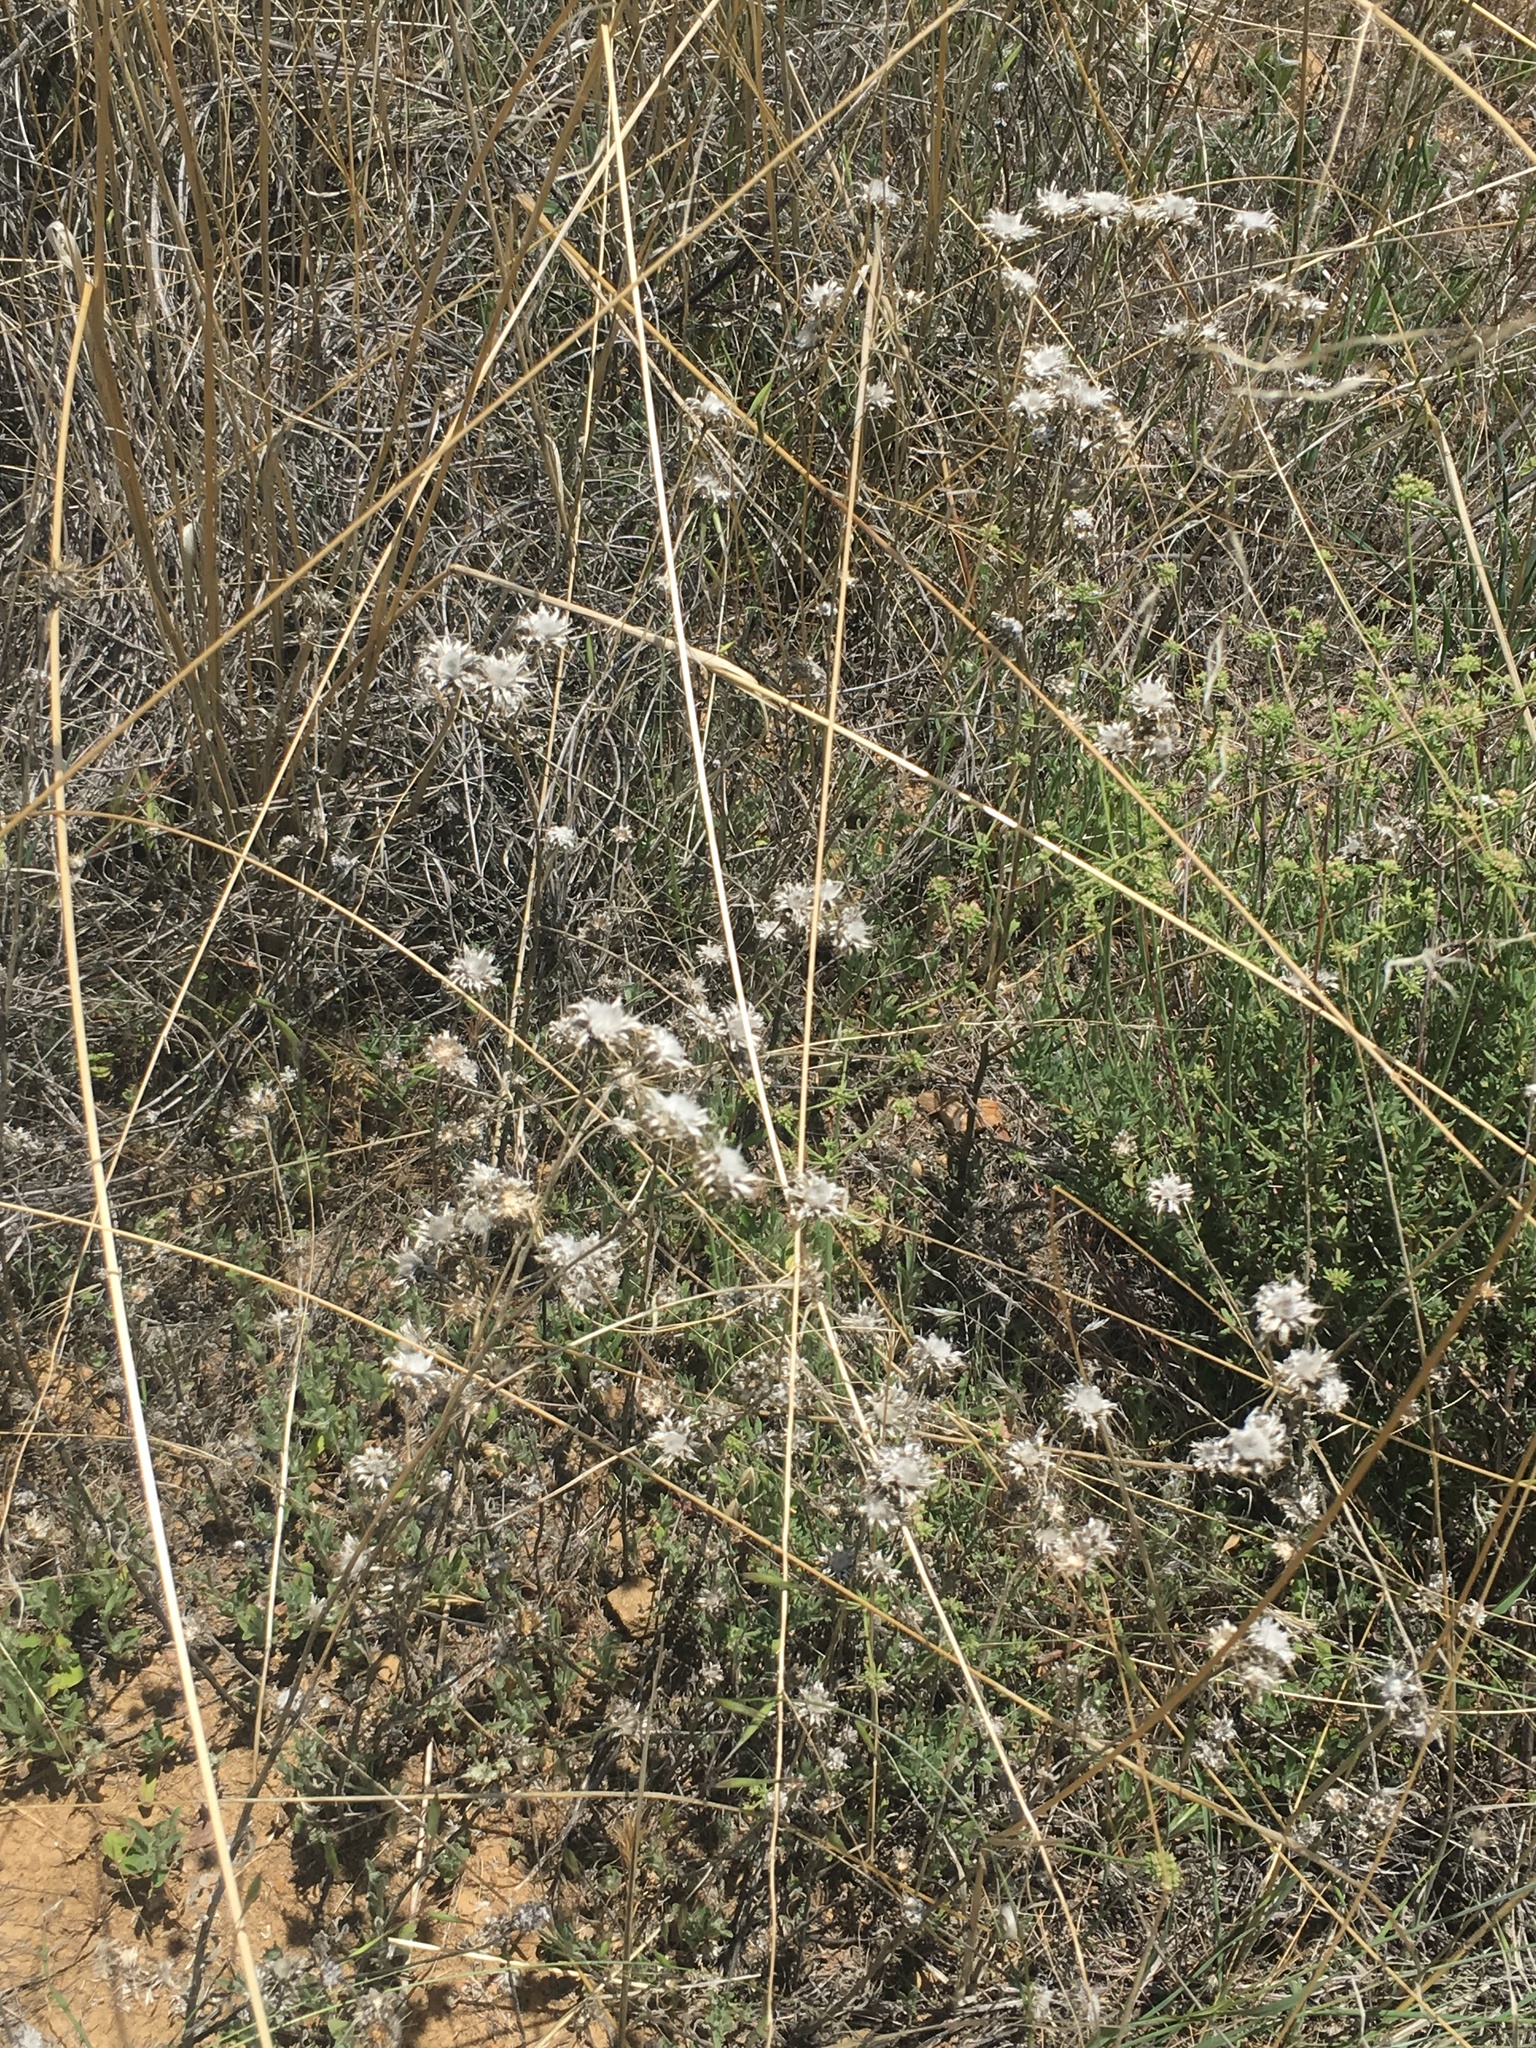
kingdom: Plantae
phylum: Tracheophyta
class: Magnoliopsida
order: Asterales
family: Asteraceae
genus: Centaurea
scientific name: Centaurea melitensis
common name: Maltese star-thistle
